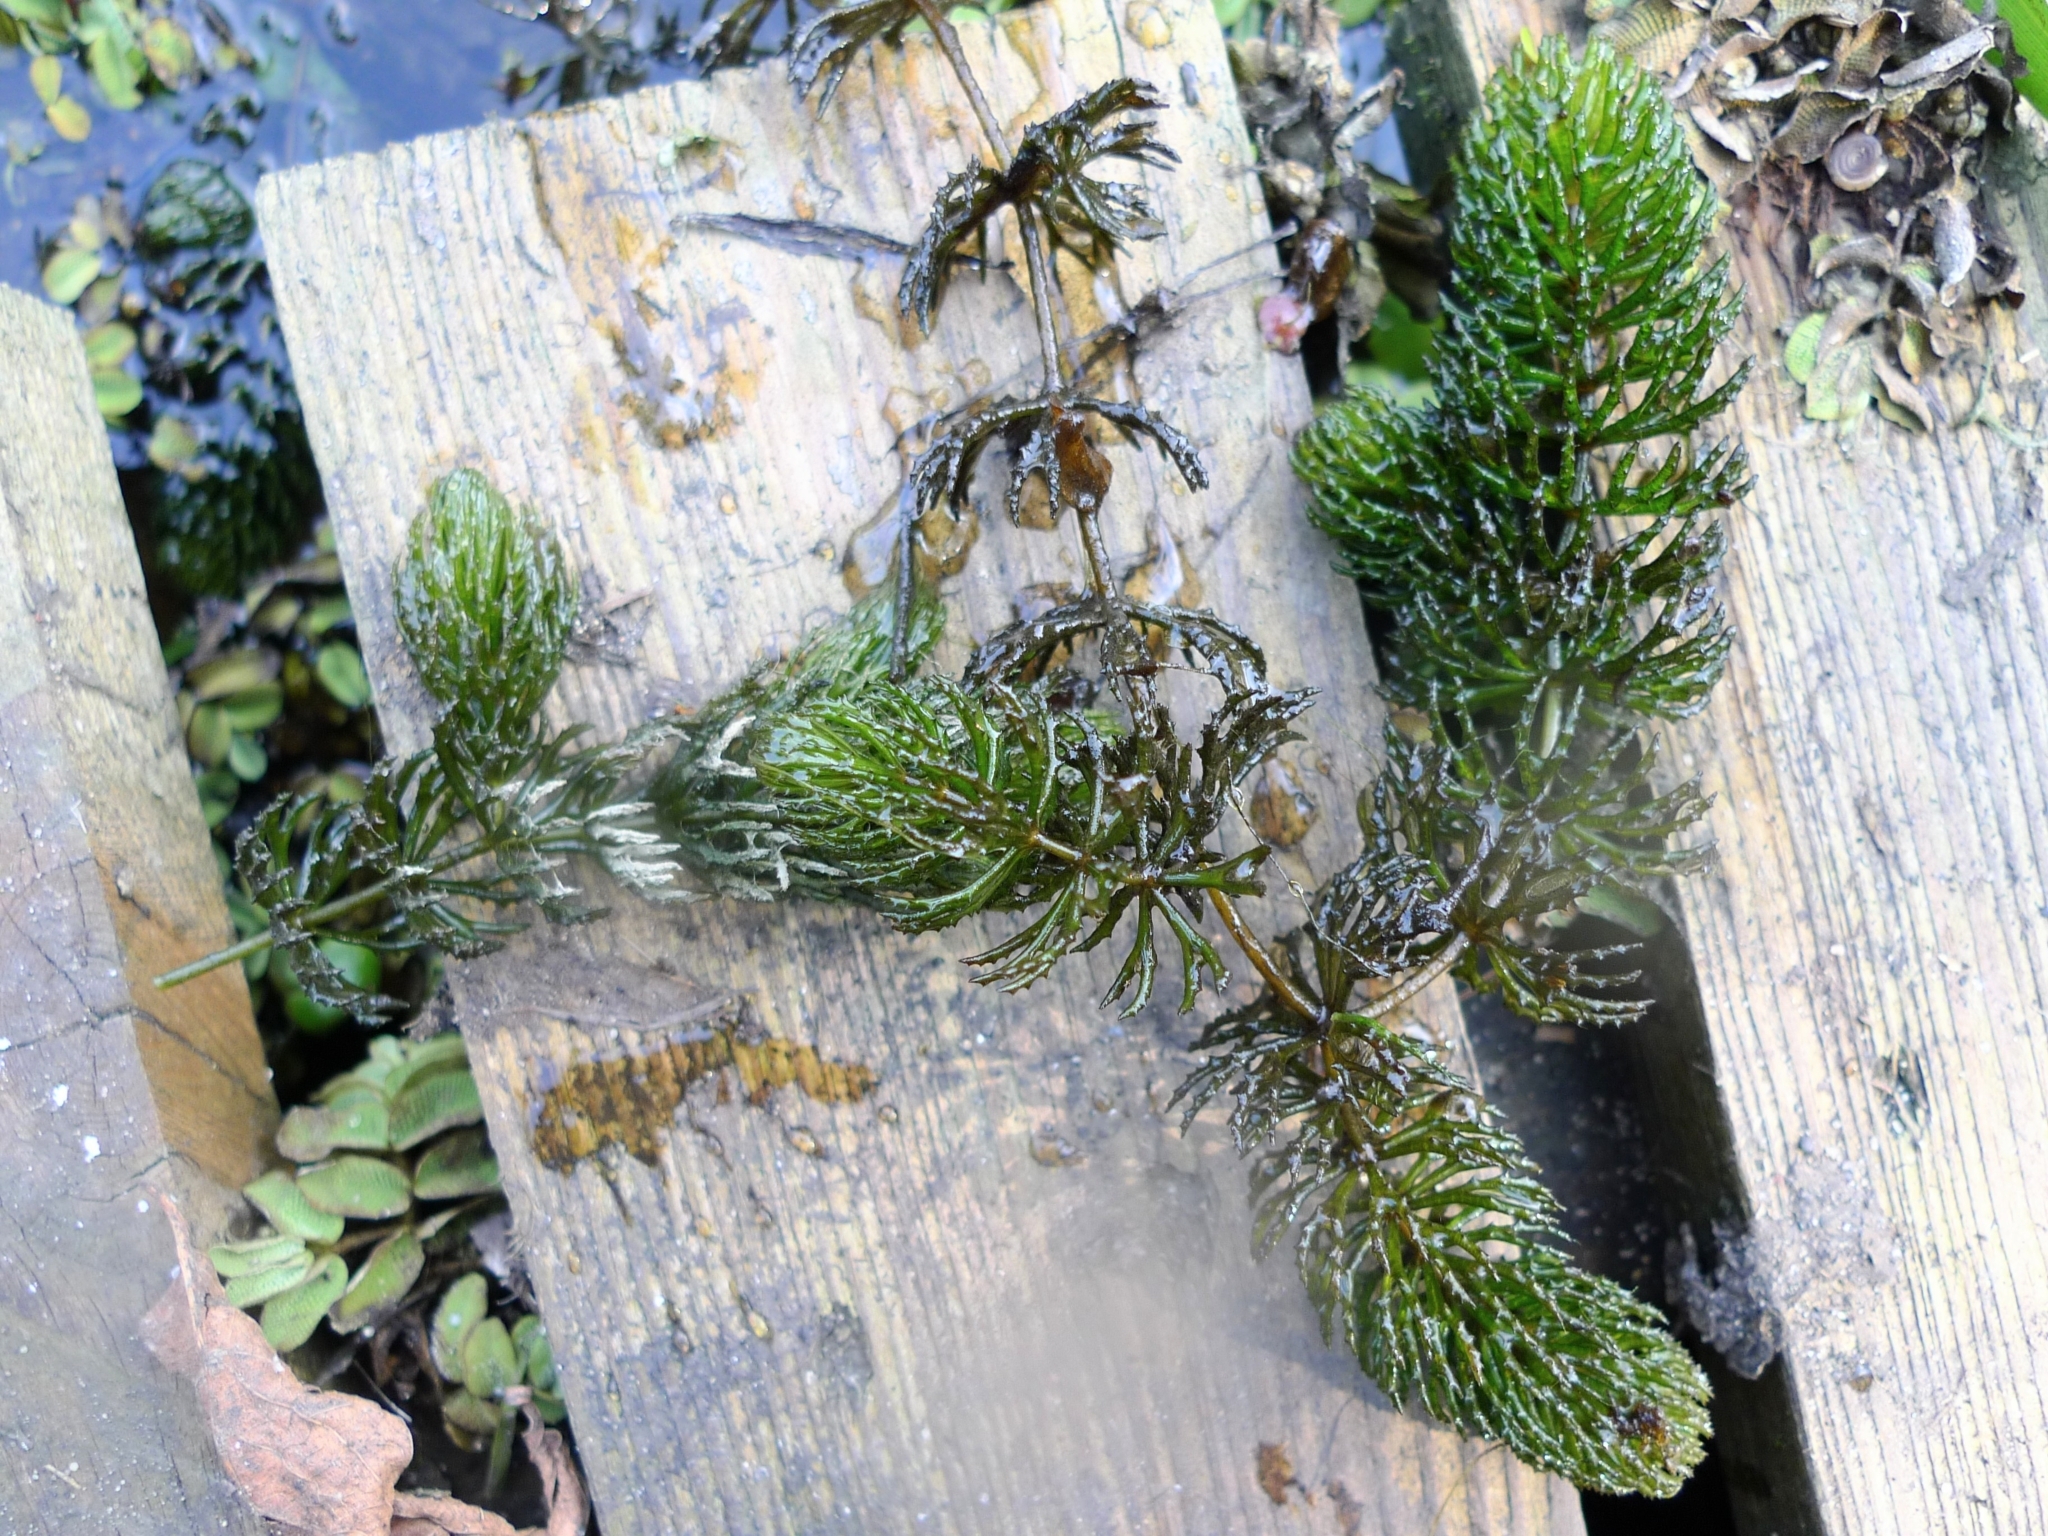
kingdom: Plantae
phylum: Tracheophyta
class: Magnoliopsida
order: Ceratophyllales
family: Ceratophyllaceae
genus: Ceratophyllum
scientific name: Ceratophyllum demersum
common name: Rigid hornwort
